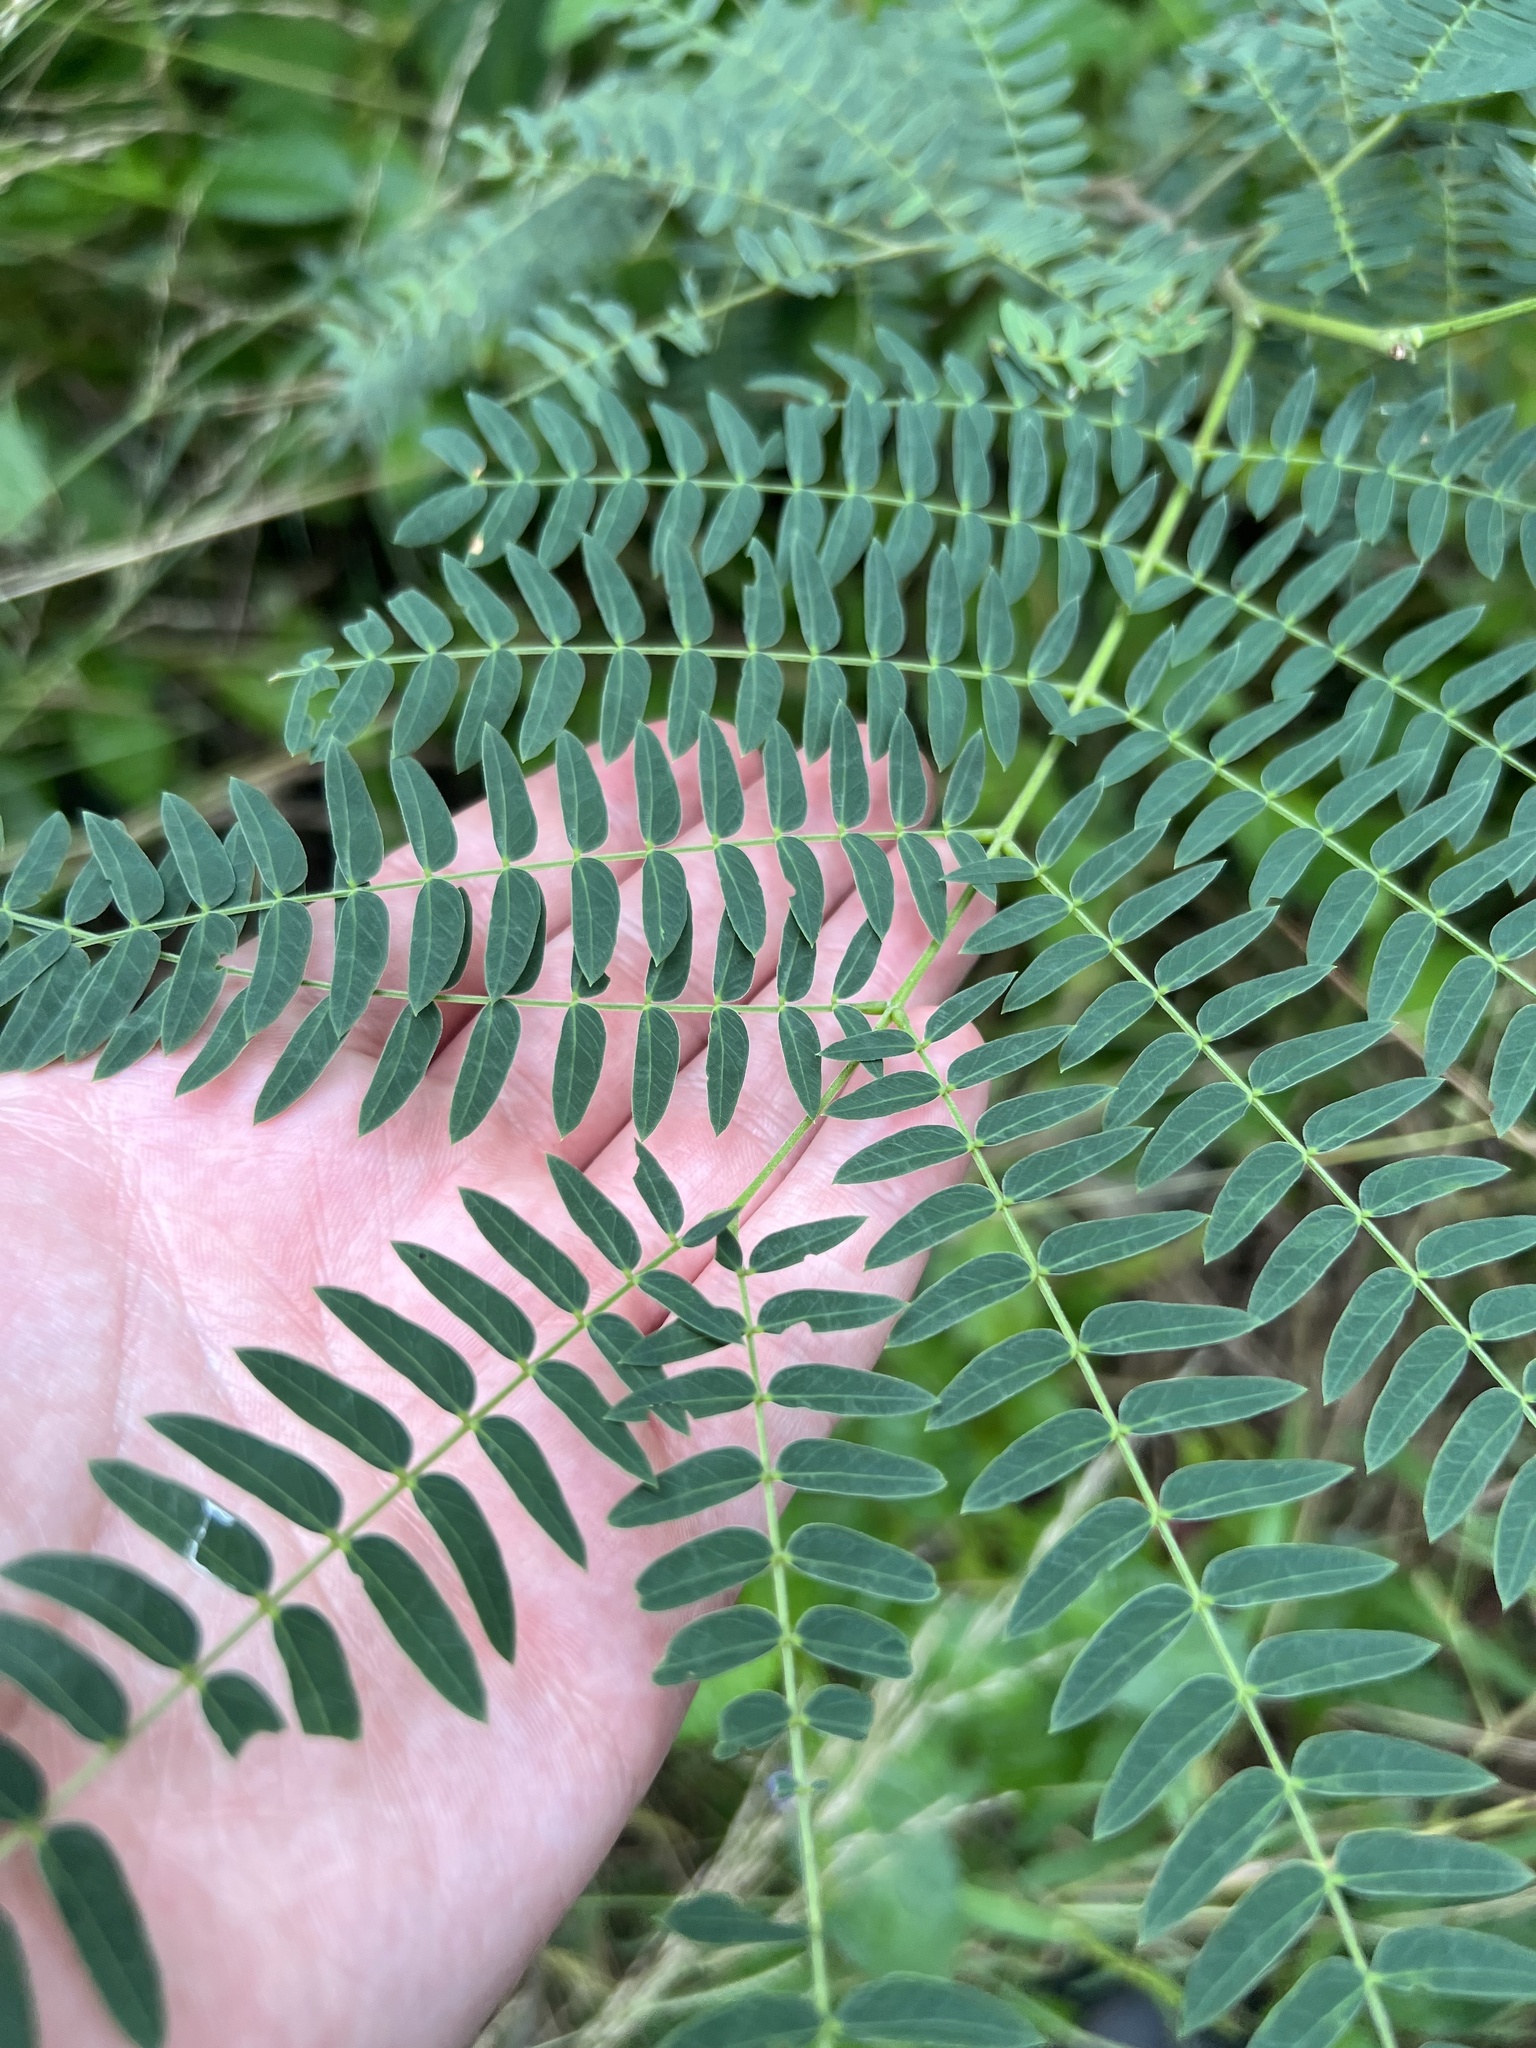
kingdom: Plantae
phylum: Tracheophyta
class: Magnoliopsida
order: Fabales
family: Fabaceae
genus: Leucaena
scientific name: Leucaena leucocephala
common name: White leadtree
